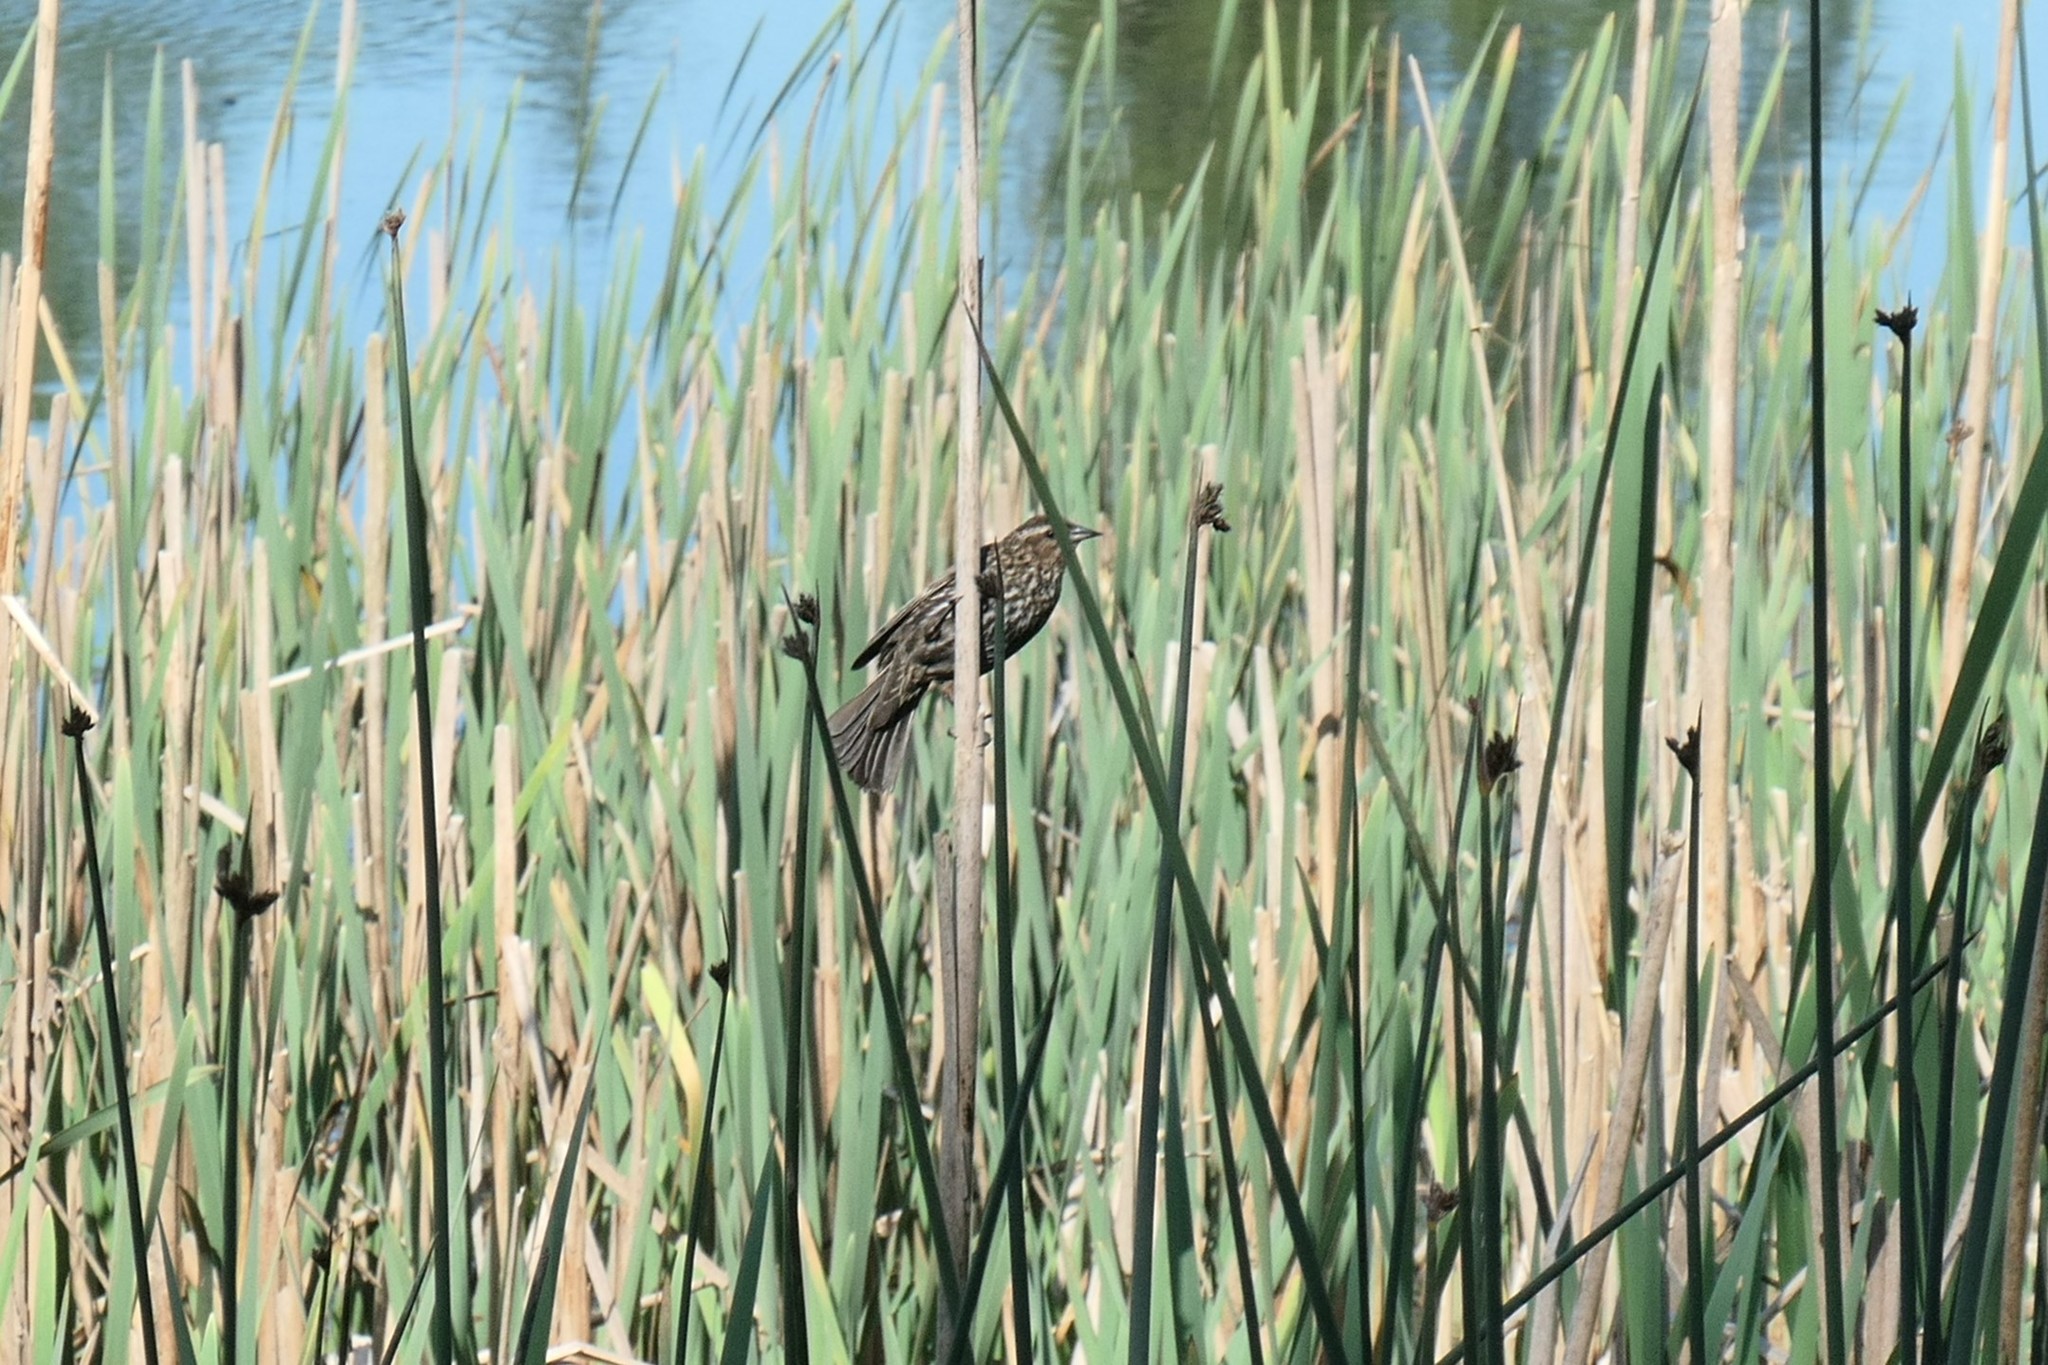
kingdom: Animalia
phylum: Chordata
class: Aves
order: Passeriformes
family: Icteridae
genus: Agelaius
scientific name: Agelaius phoeniceus
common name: Red-winged blackbird
